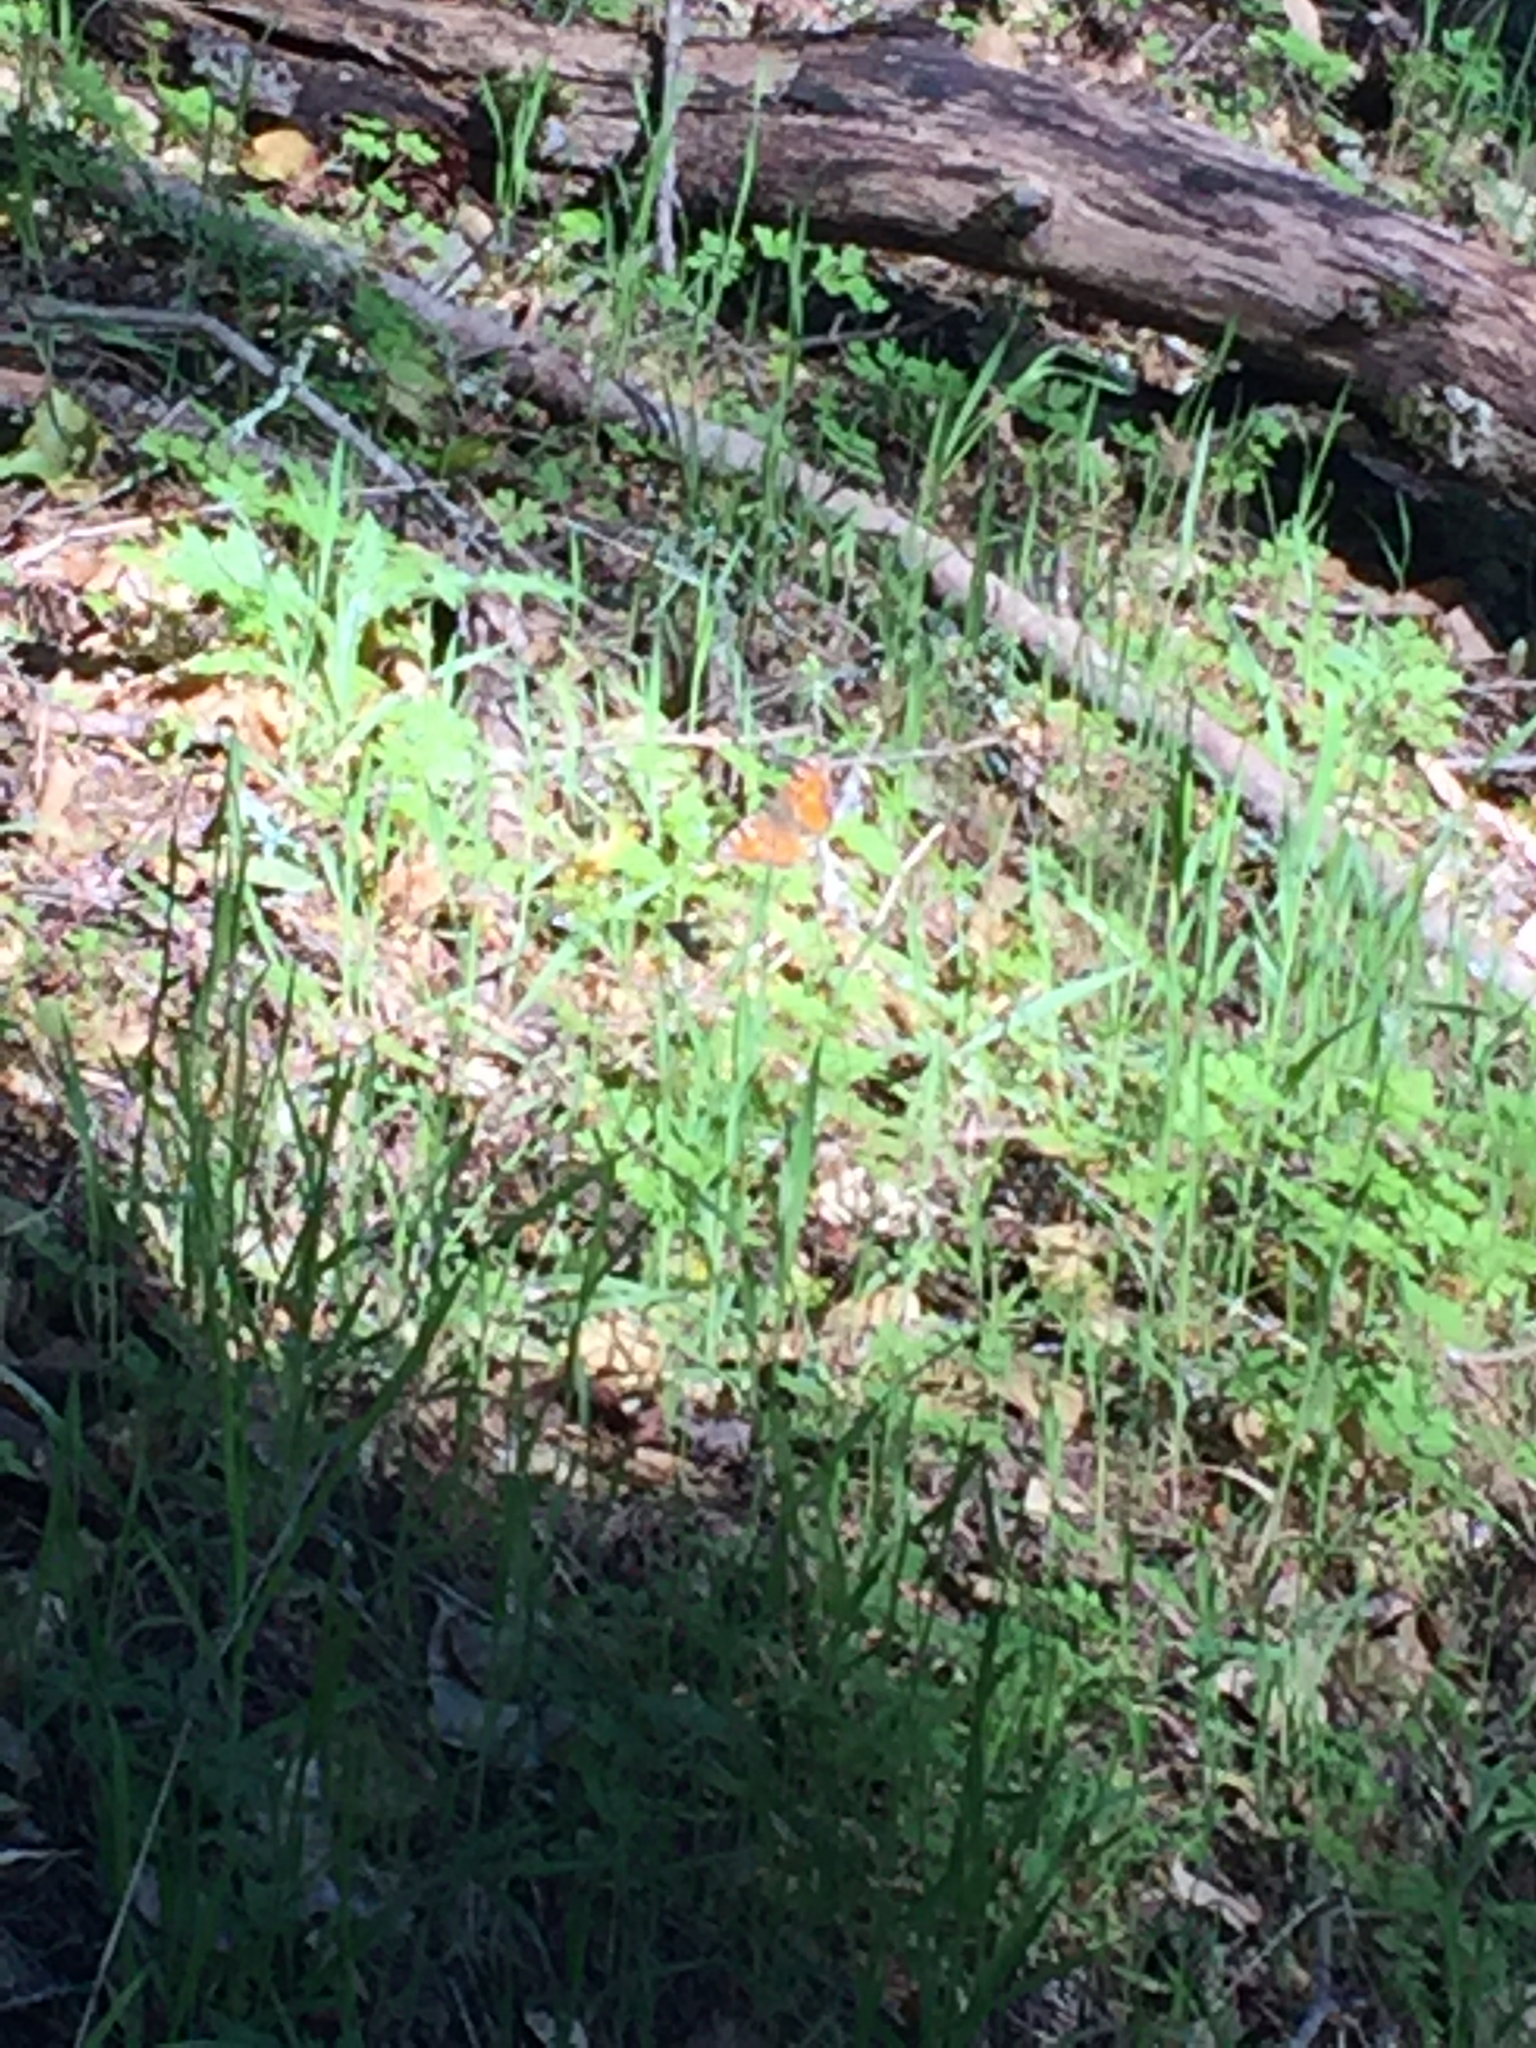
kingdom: Animalia
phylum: Arthropoda
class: Insecta
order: Lepidoptera
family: Nymphalidae
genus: Nymphalis
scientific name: Nymphalis californica
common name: California tortoiseshell
